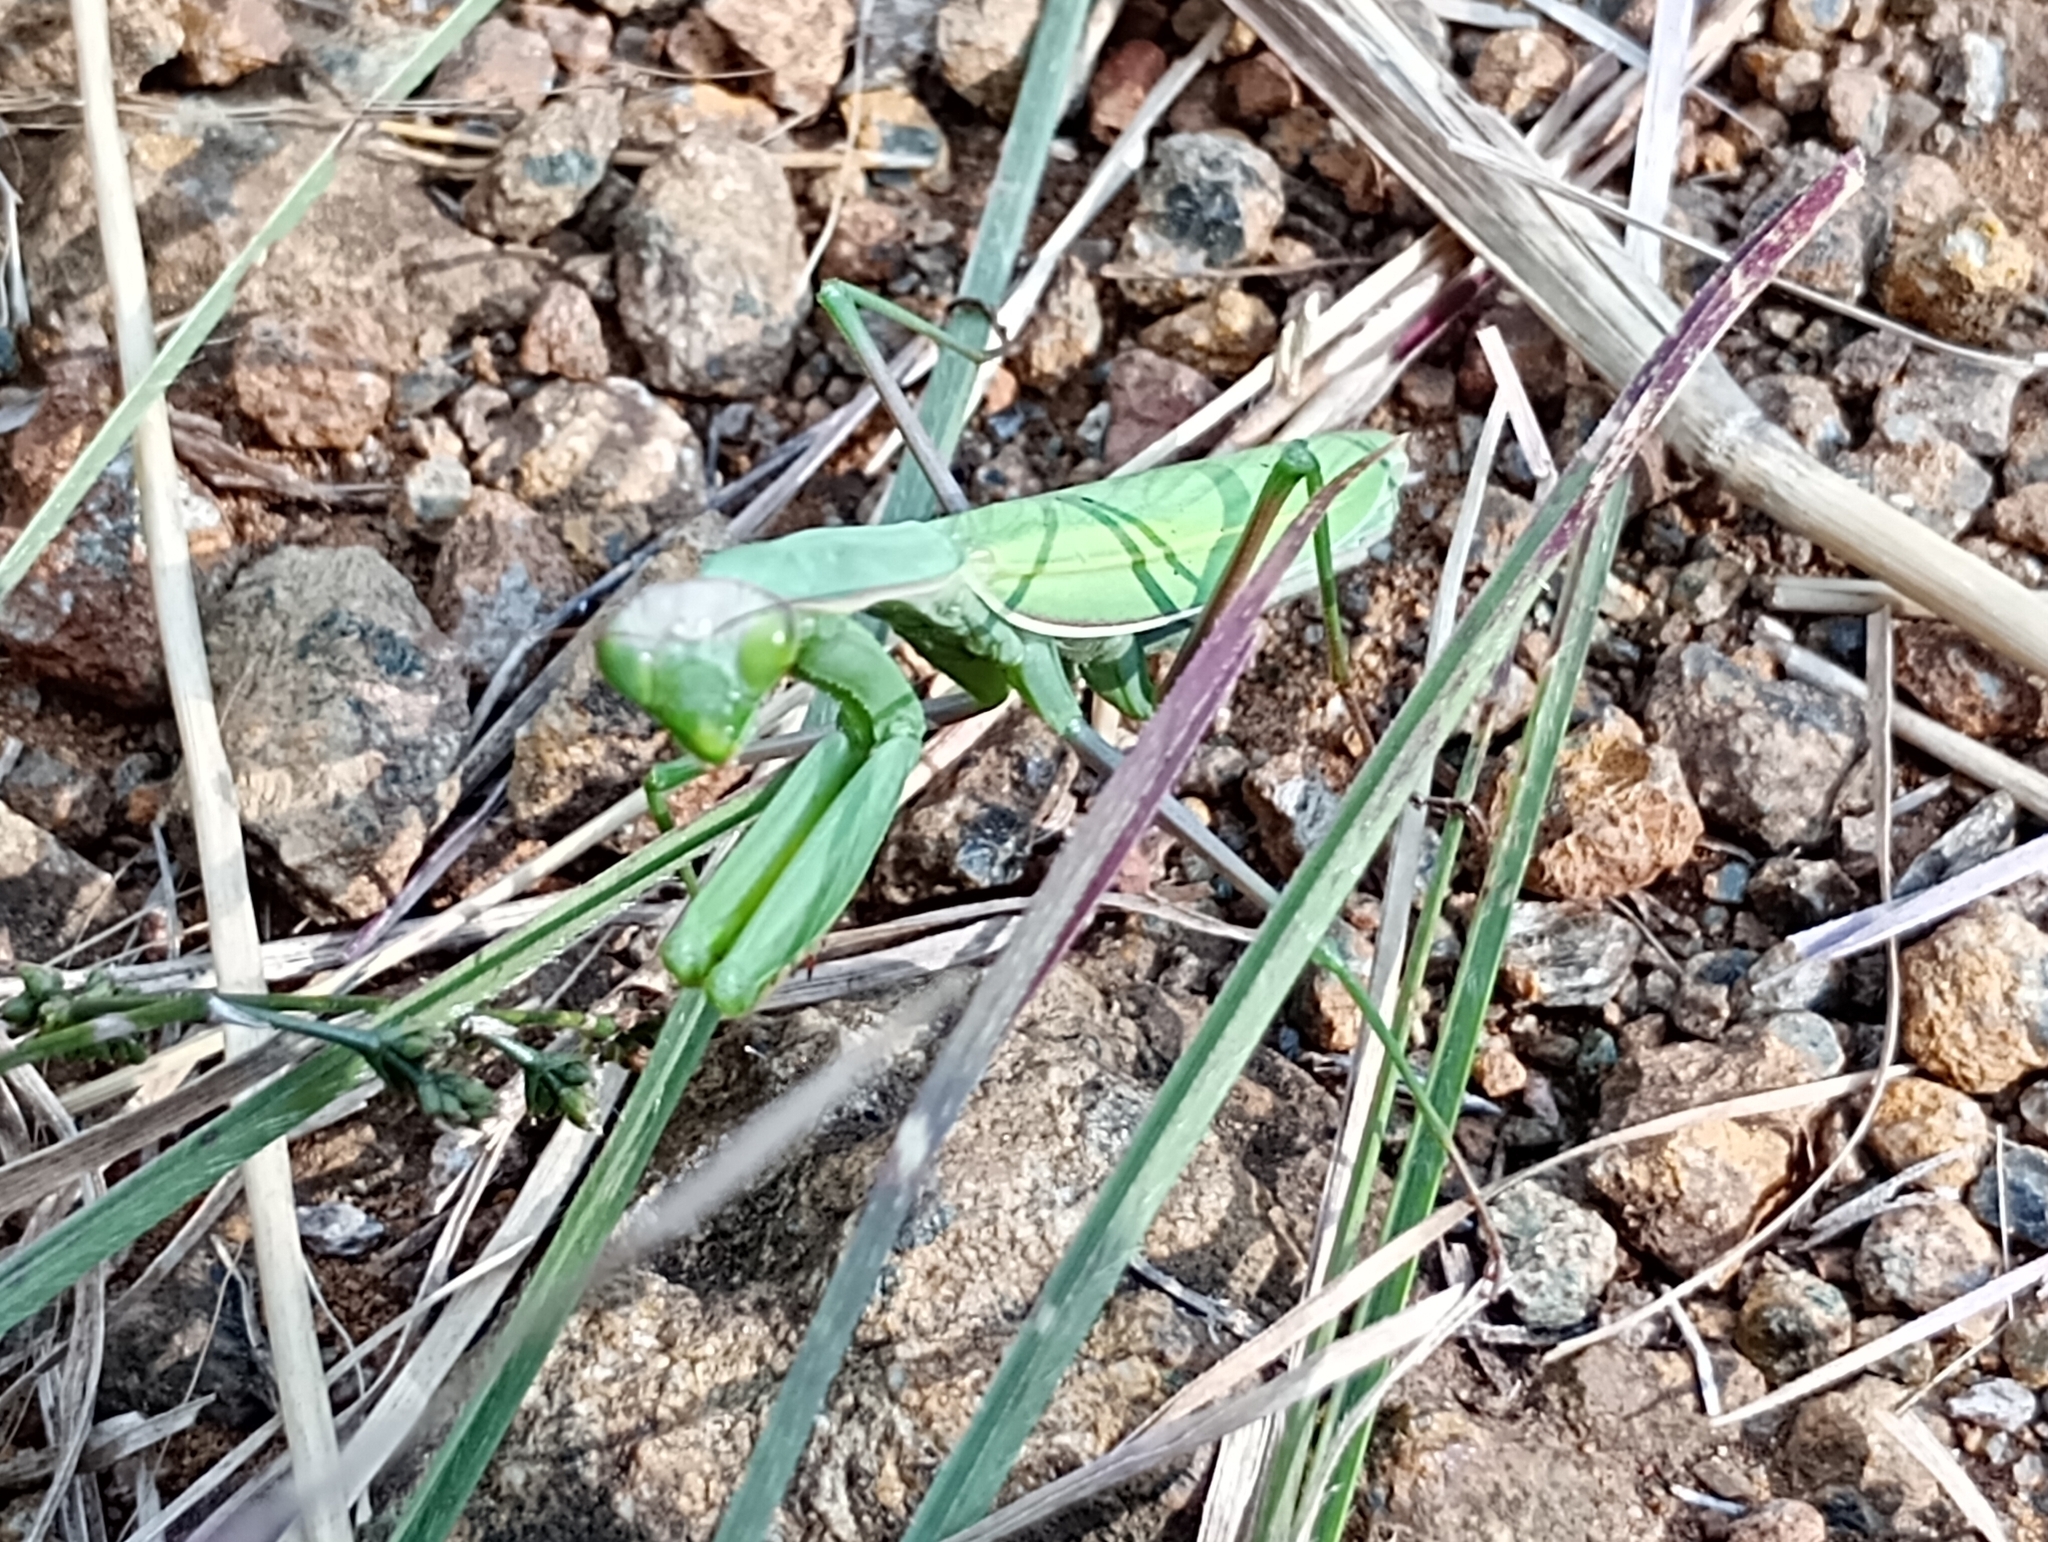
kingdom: Animalia
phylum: Arthropoda
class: Insecta
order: Mantodea
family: Mantidae
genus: Mantis
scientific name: Mantis religiosa
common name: Praying mantis
